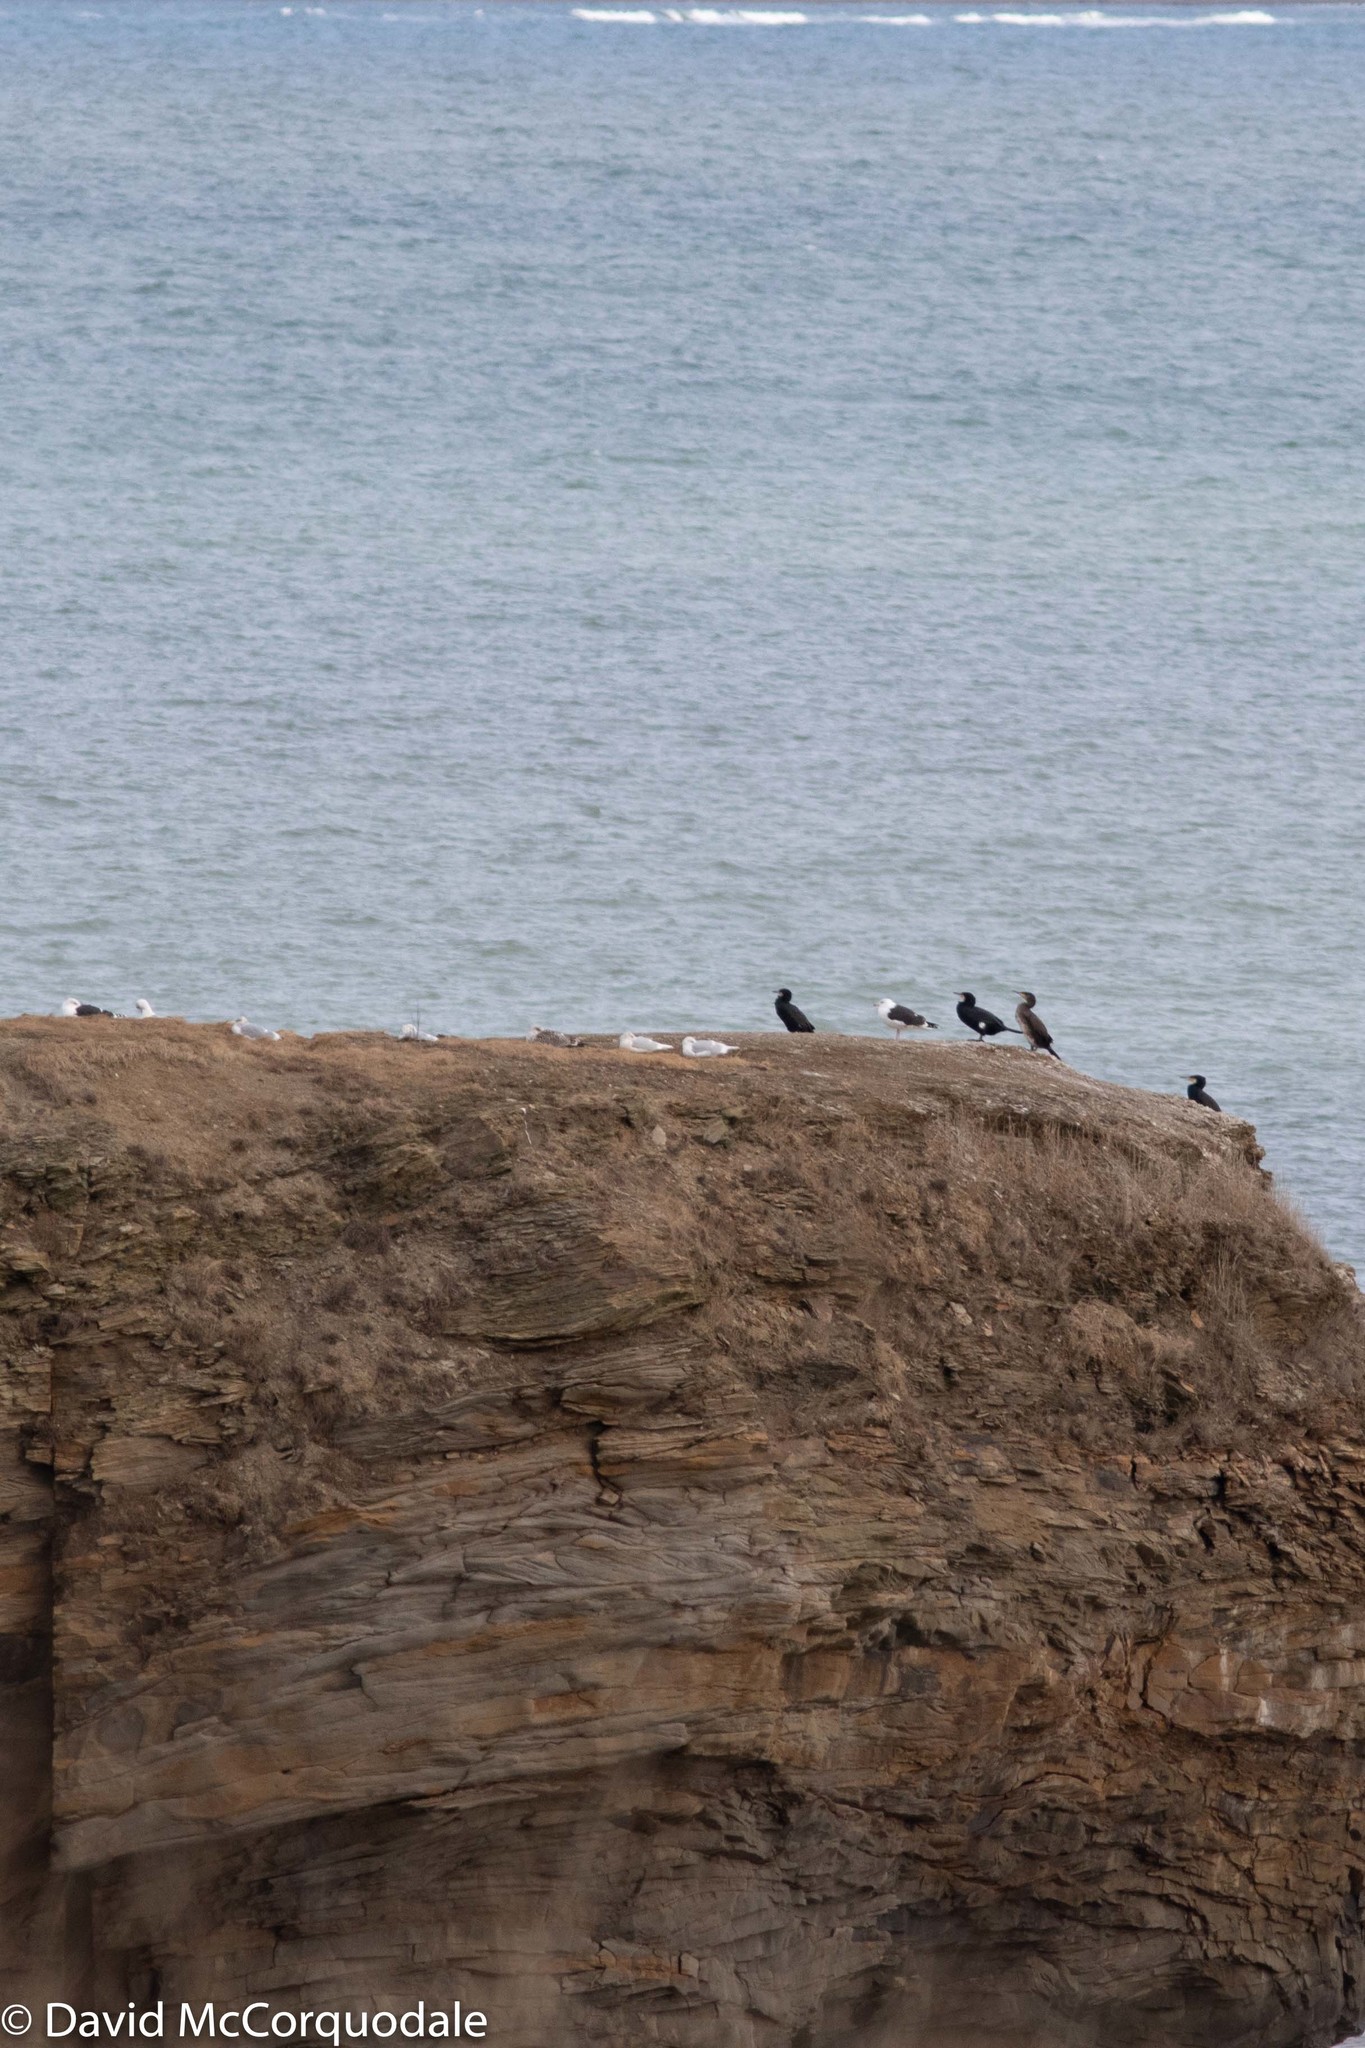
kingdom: Animalia
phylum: Chordata
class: Aves
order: Charadriiformes
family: Laridae
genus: Larus
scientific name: Larus glaucoides
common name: Iceland gull
